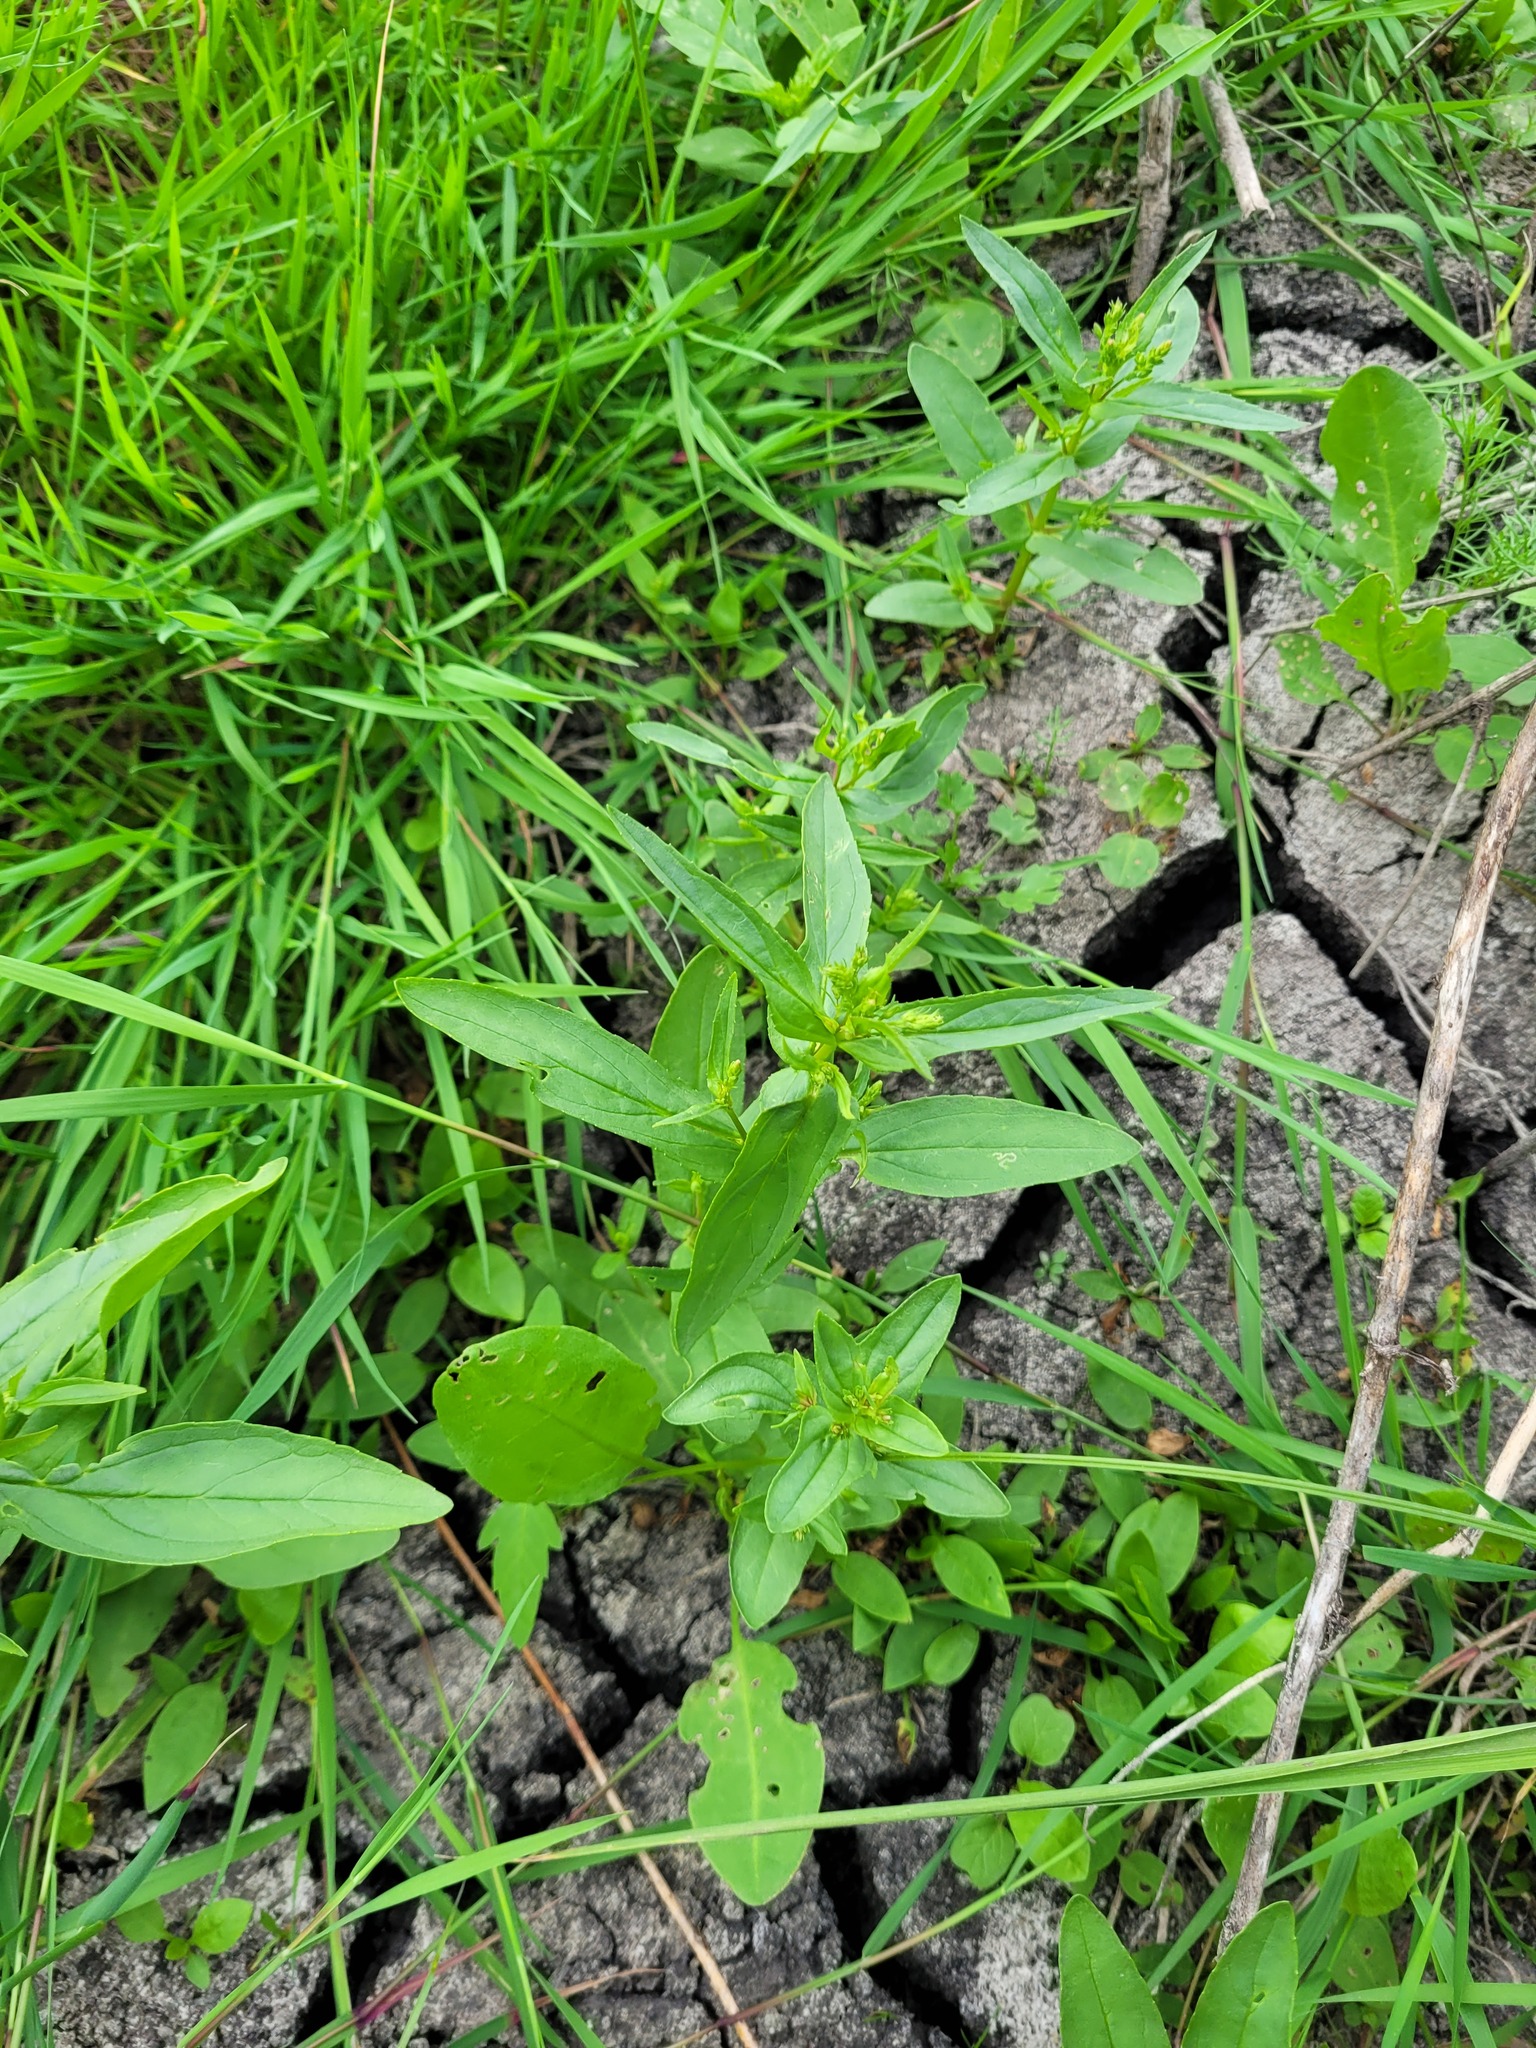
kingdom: Plantae
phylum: Tracheophyta
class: Magnoliopsida
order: Lamiales
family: Plantaginaceae
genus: Veronica
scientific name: Veronica anagallis-aquatica
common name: Water speedwell
